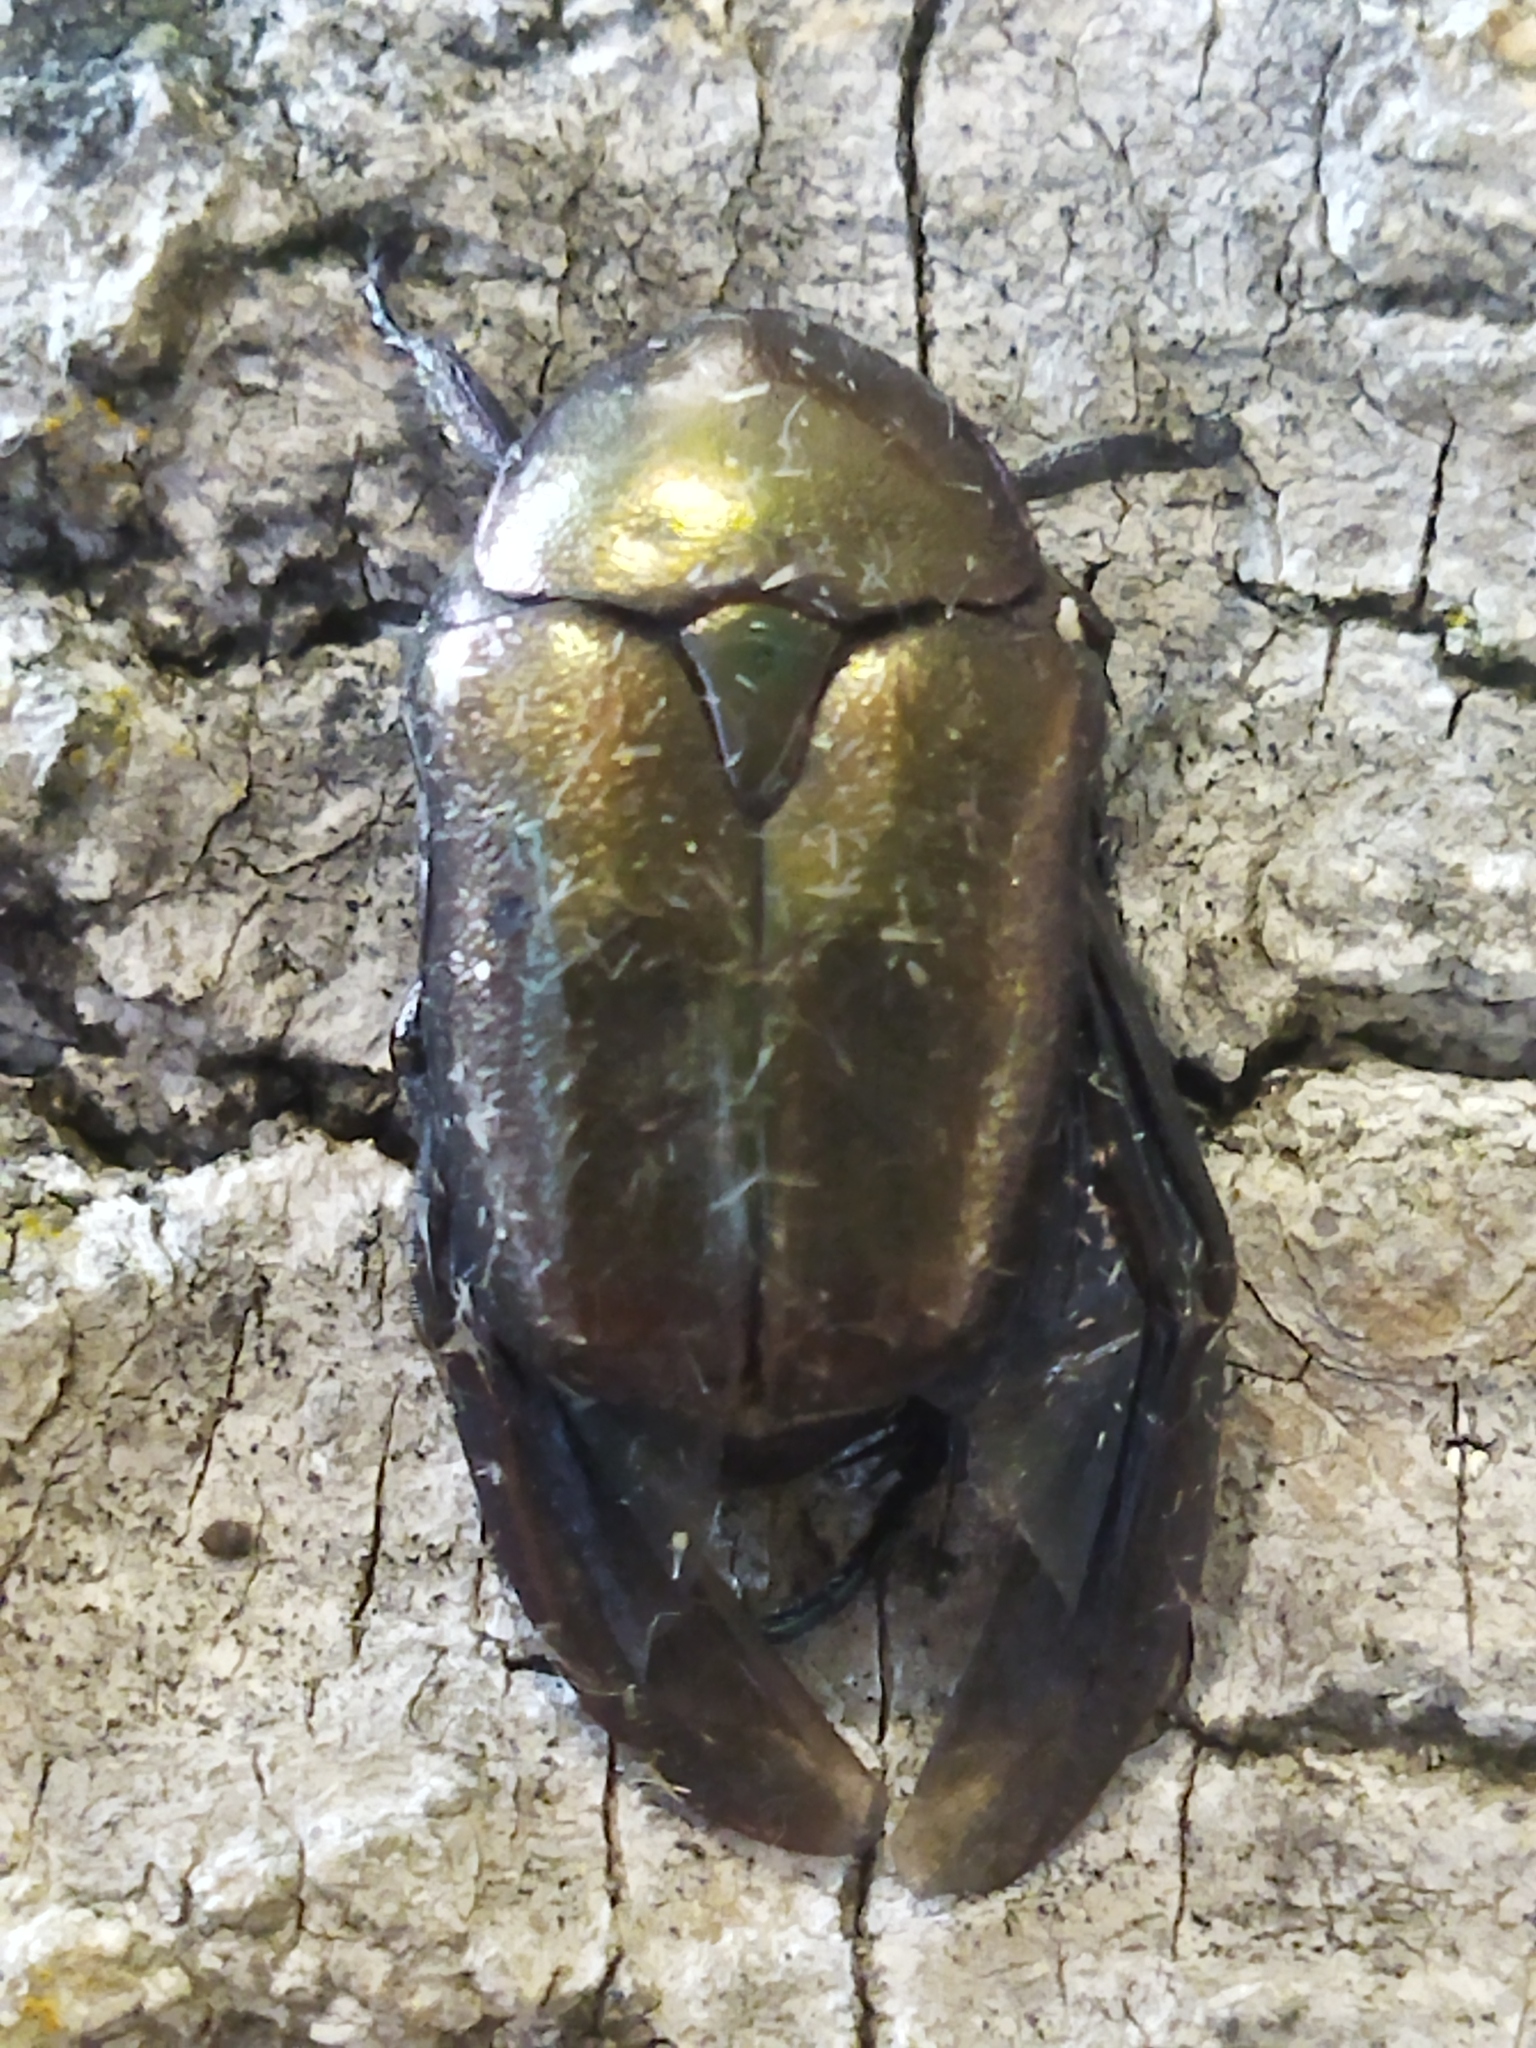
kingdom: Animalia
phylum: Arthropoda
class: Insecta
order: Coleoptera
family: Scarabaeidae
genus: Protaetia
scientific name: Protaetia cuprea
